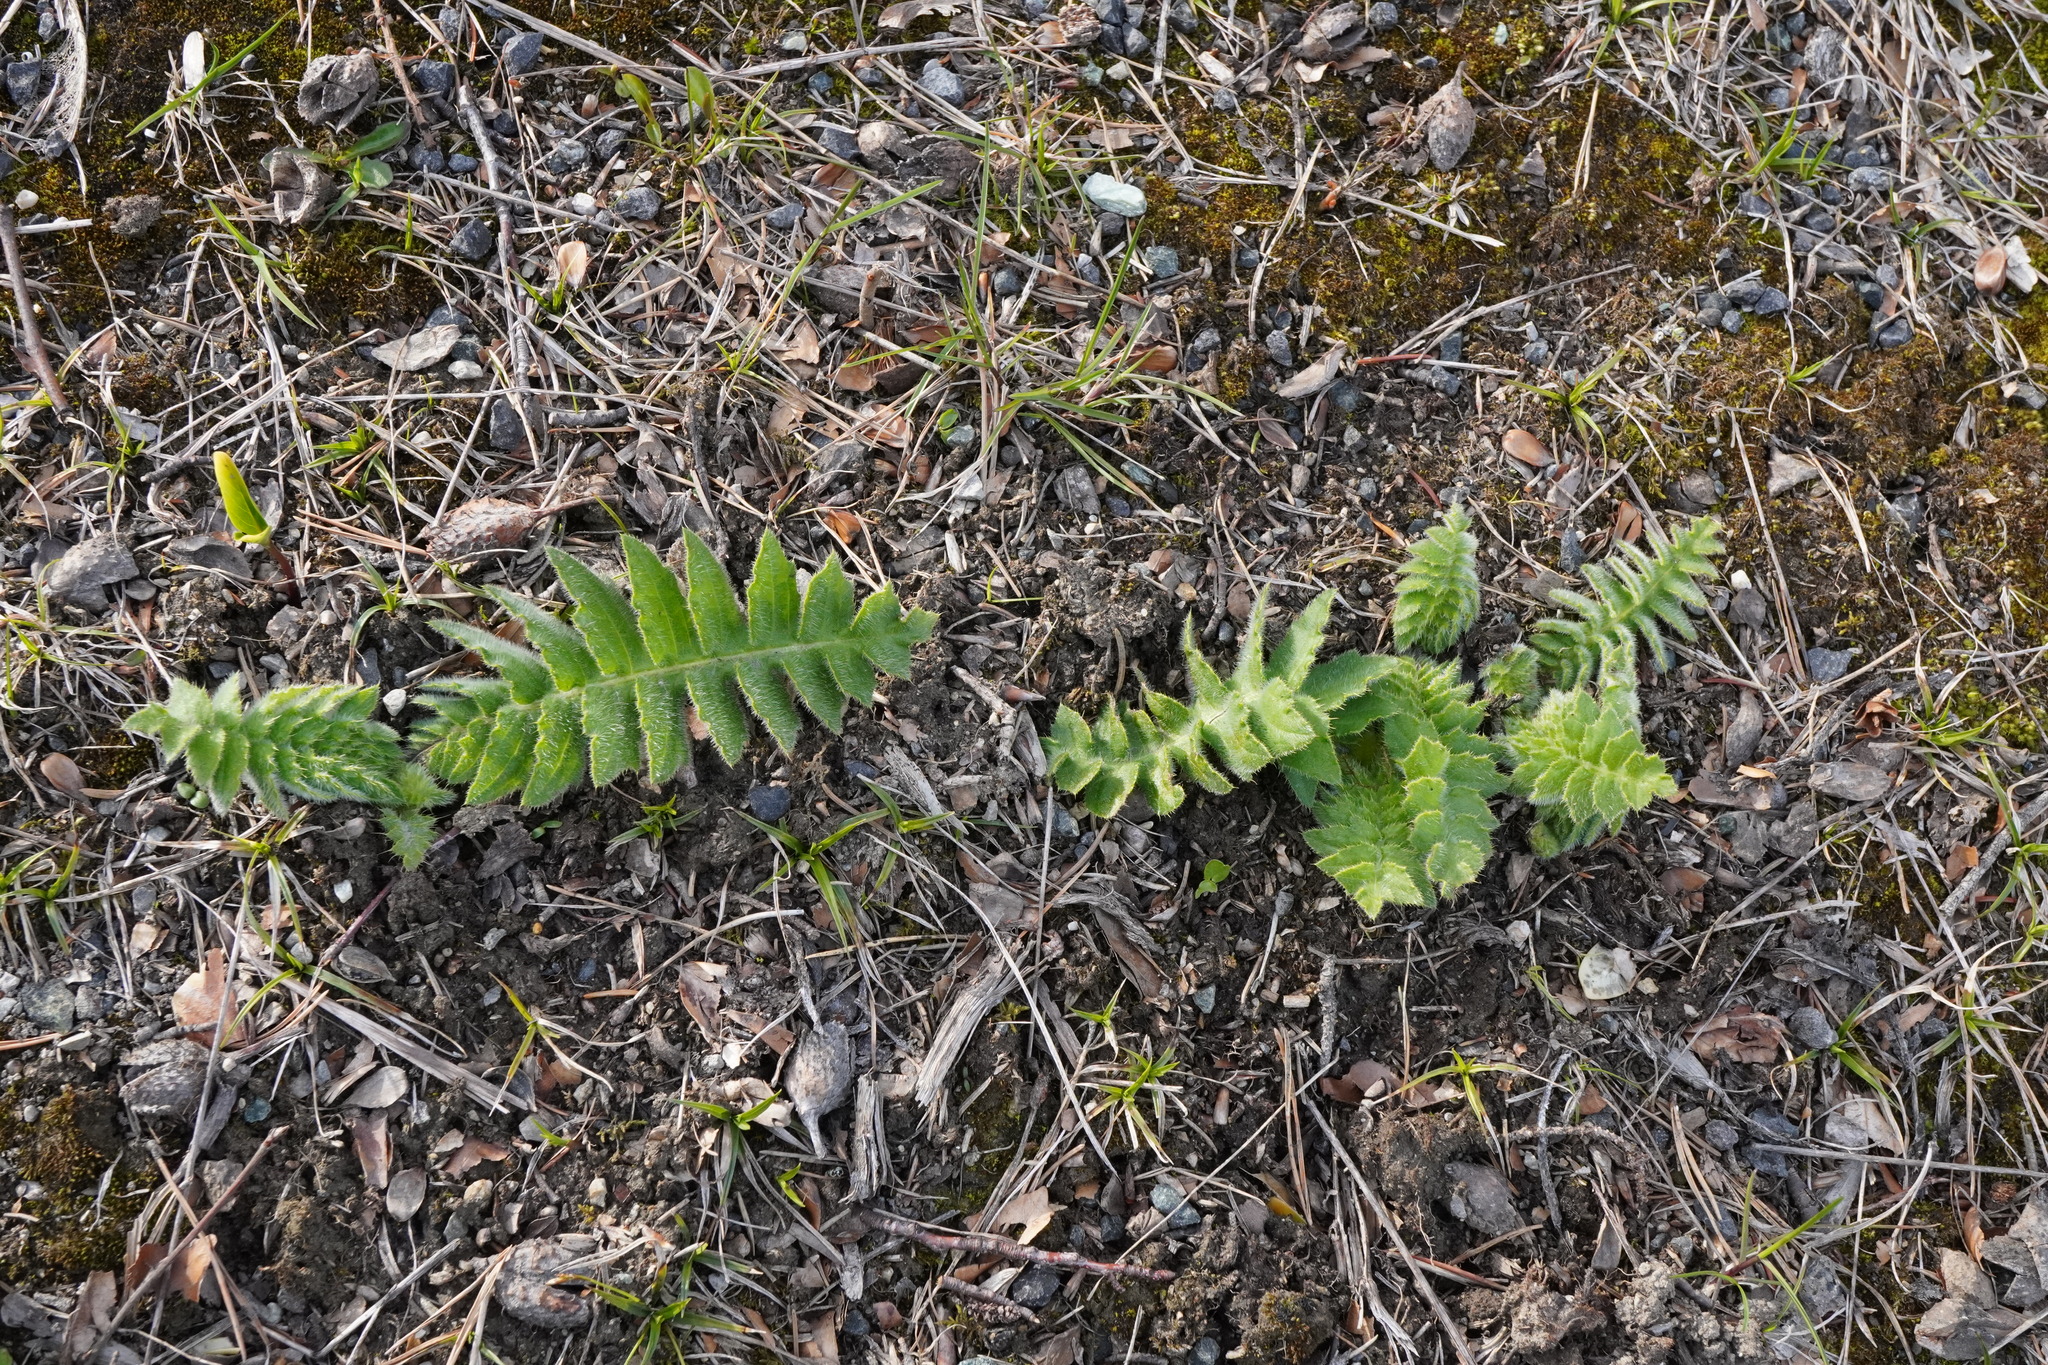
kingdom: Plantae
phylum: Tracheophyta
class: Magnoliopsida
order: Asterales
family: Asteraceae
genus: Cirsium
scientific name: Cirsium erisithales
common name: Yellow thistle
